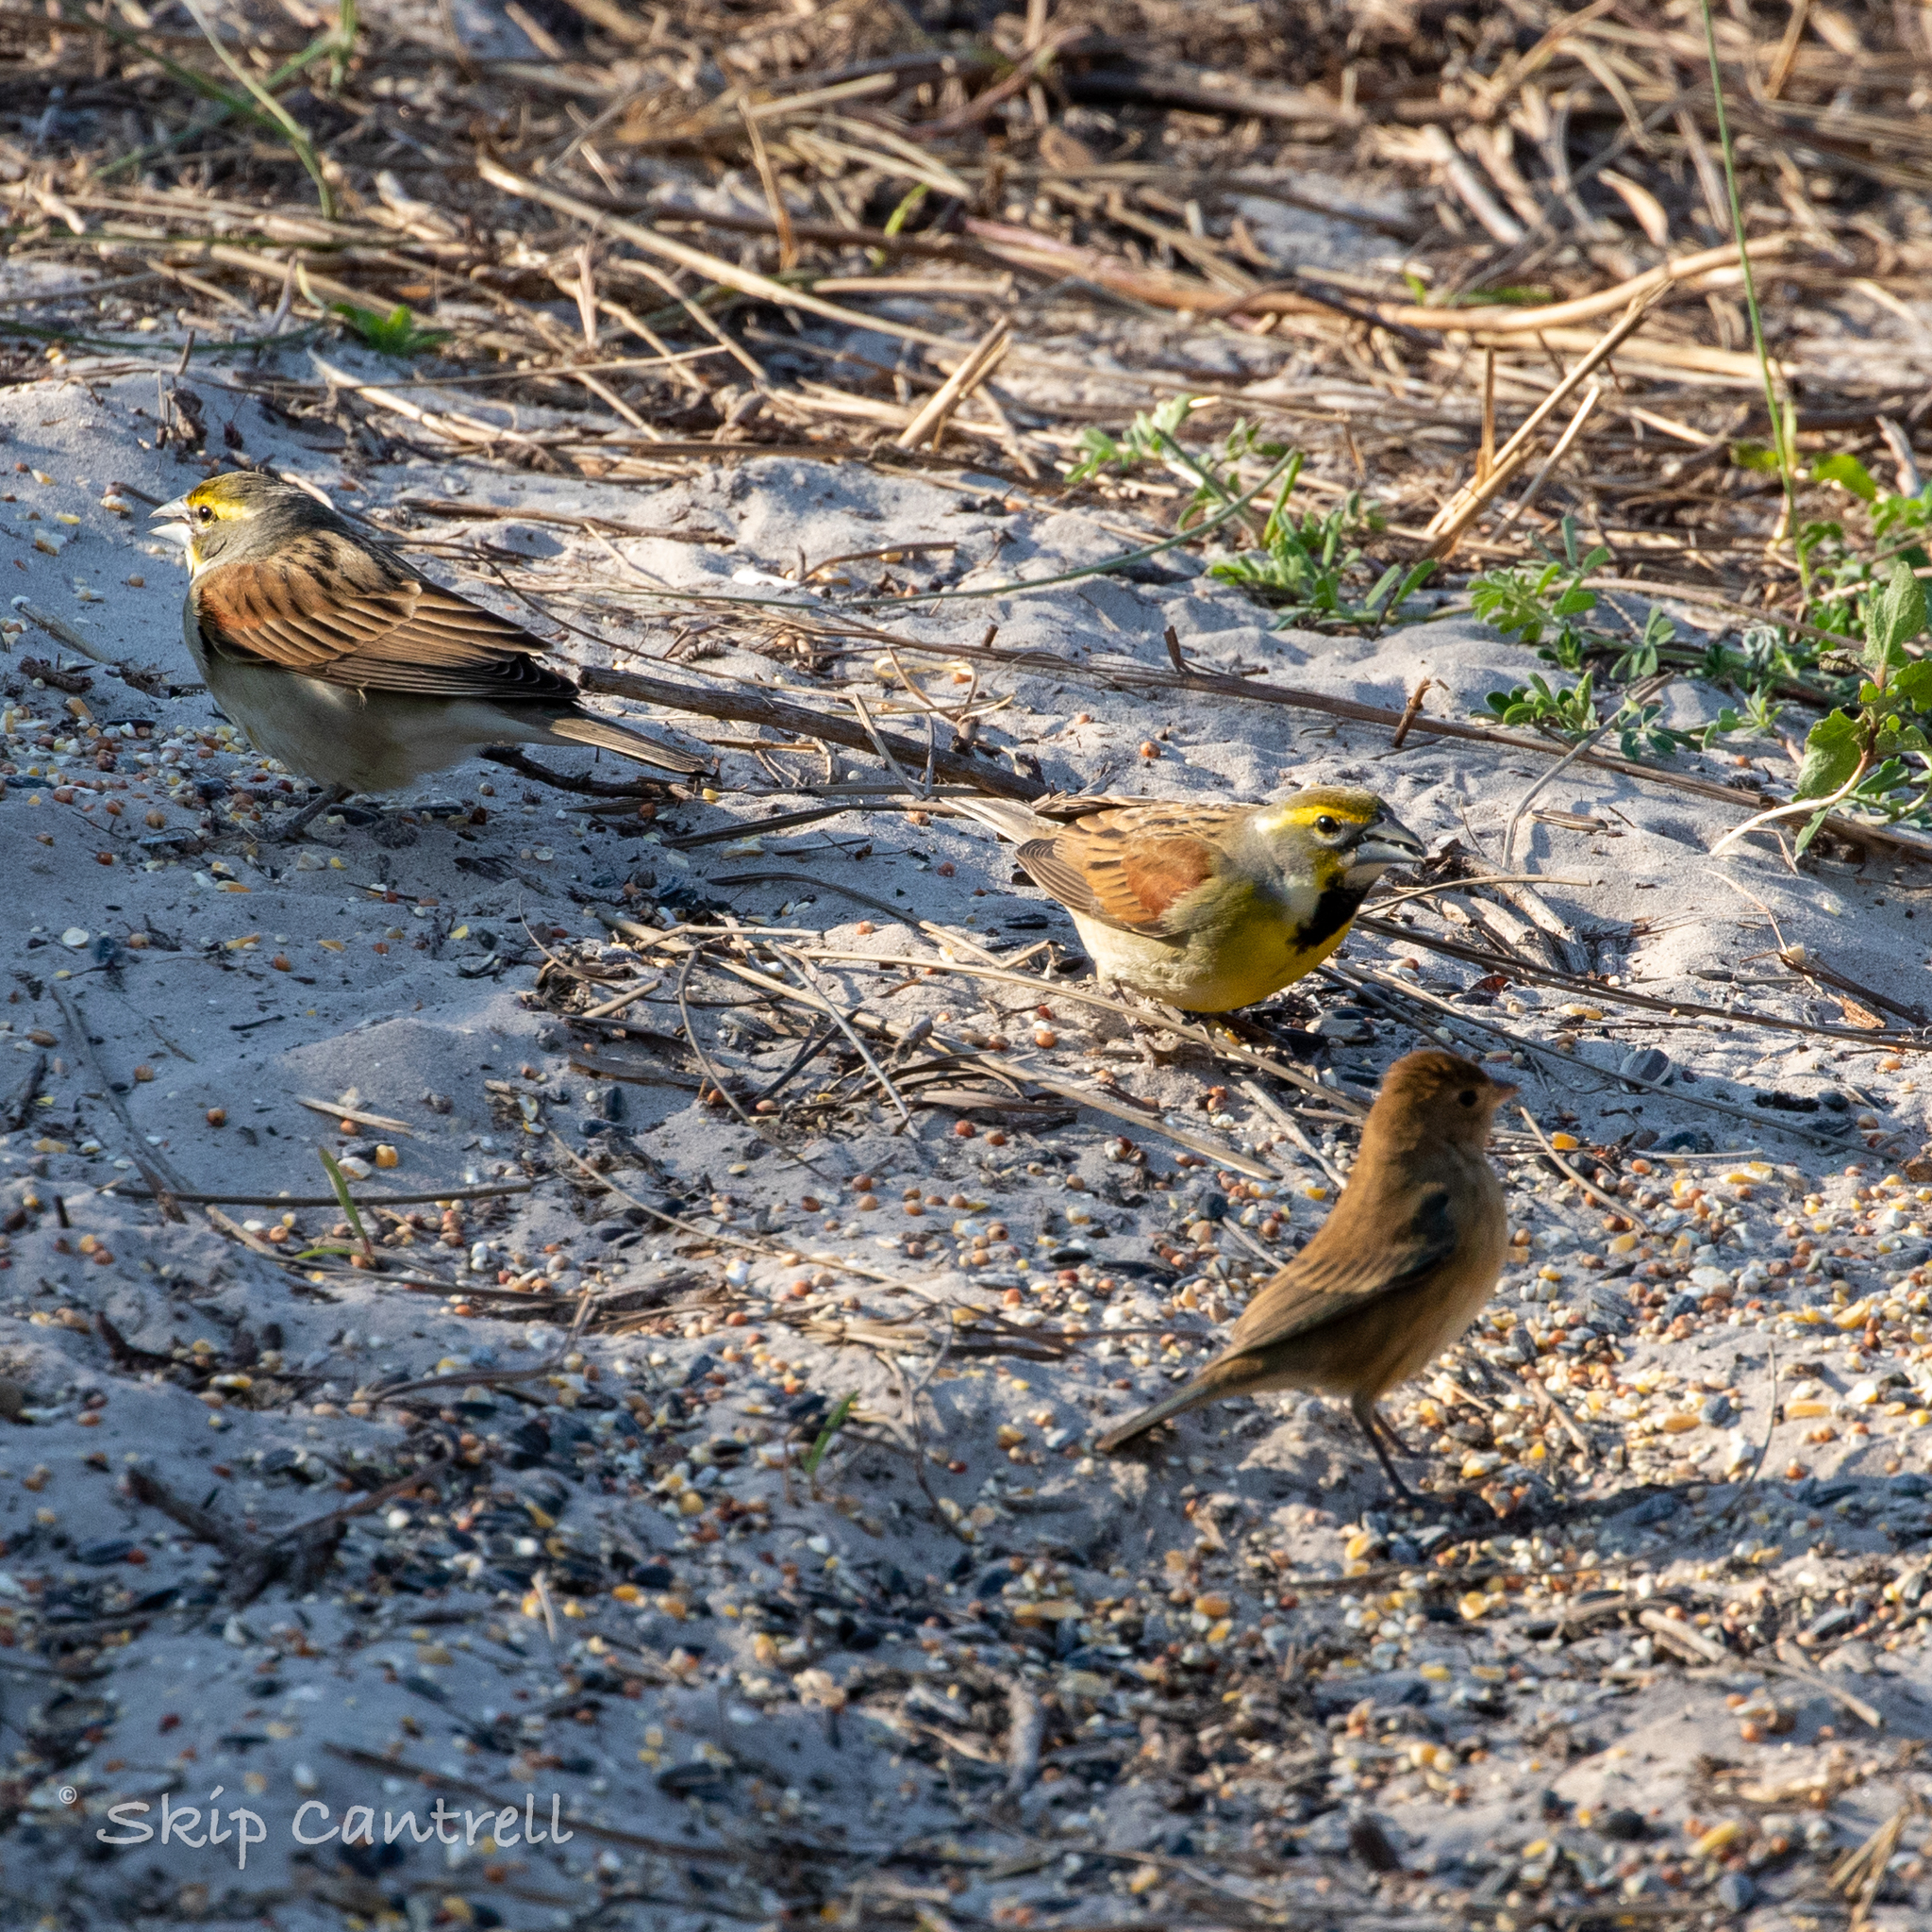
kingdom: Animalia
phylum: Chordata
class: Aves
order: Passeriformes
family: Cardinalidae
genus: Spiza
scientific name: Spiza americana
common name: Dickcissel
